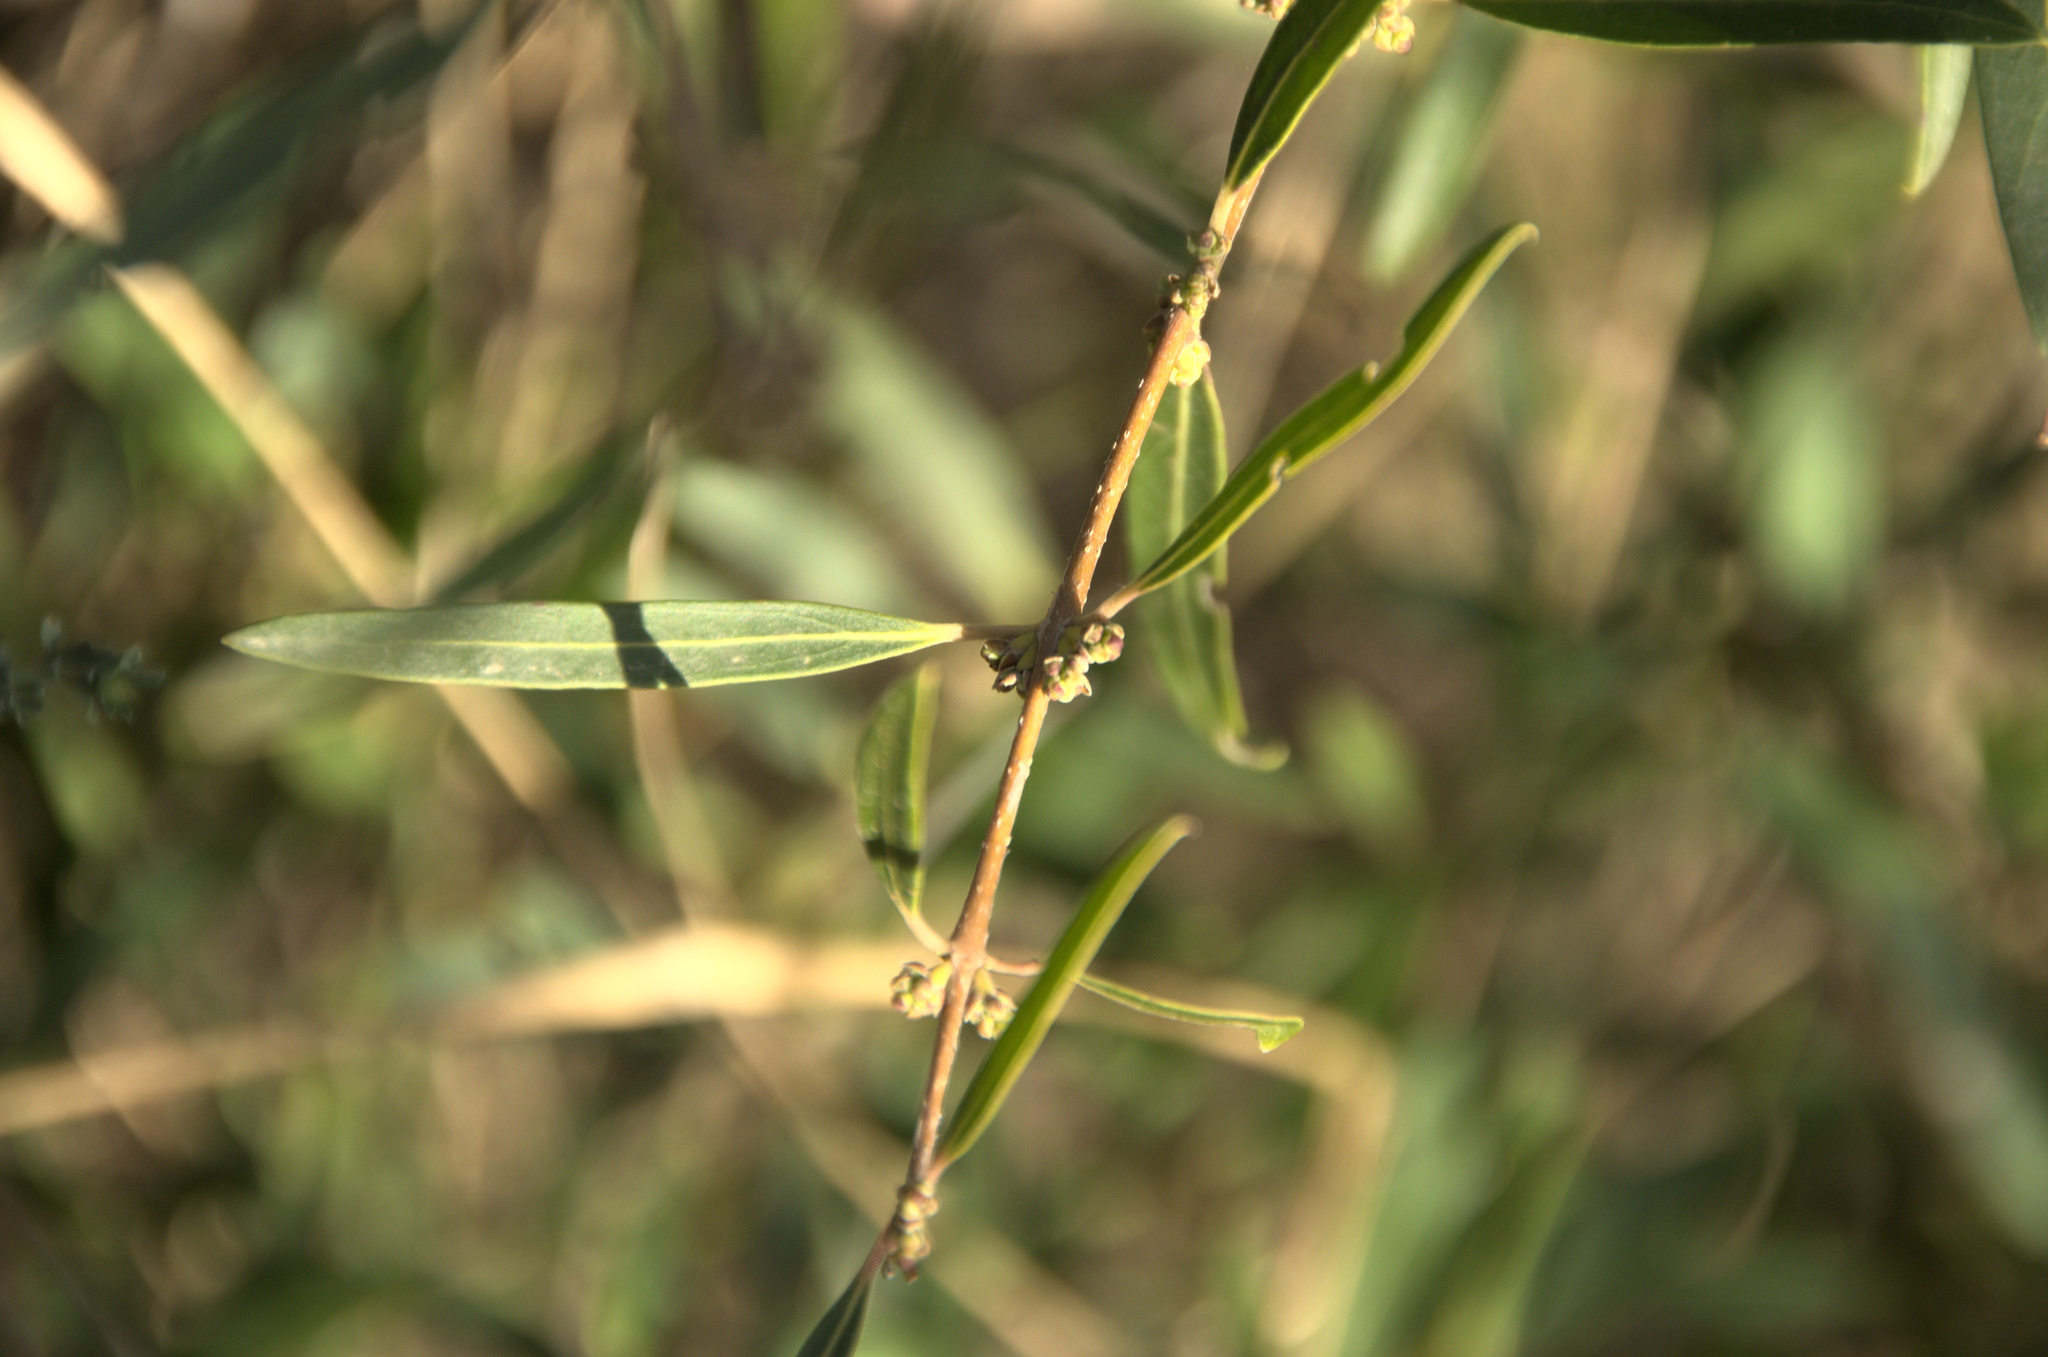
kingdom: Plantae
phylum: Tracheophyta
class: Magnoliopsida
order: Lamiales
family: Oleaceae
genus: Phillyrea
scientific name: Phillyrea angustifolia
